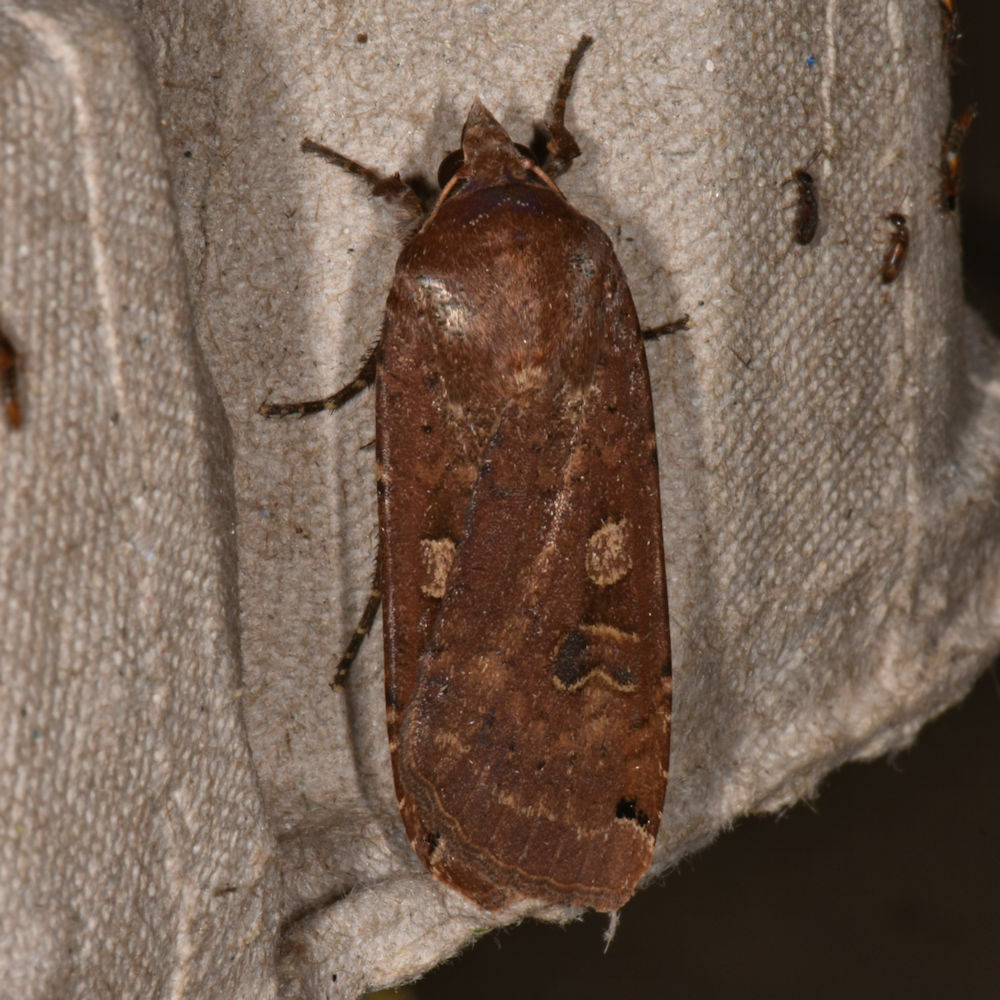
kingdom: Animalia
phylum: Arthropoda
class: Insecta
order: Lepidoptera
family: Noctuidae
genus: Noctua
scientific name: Noctua pronuba
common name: Large yellow underwing
